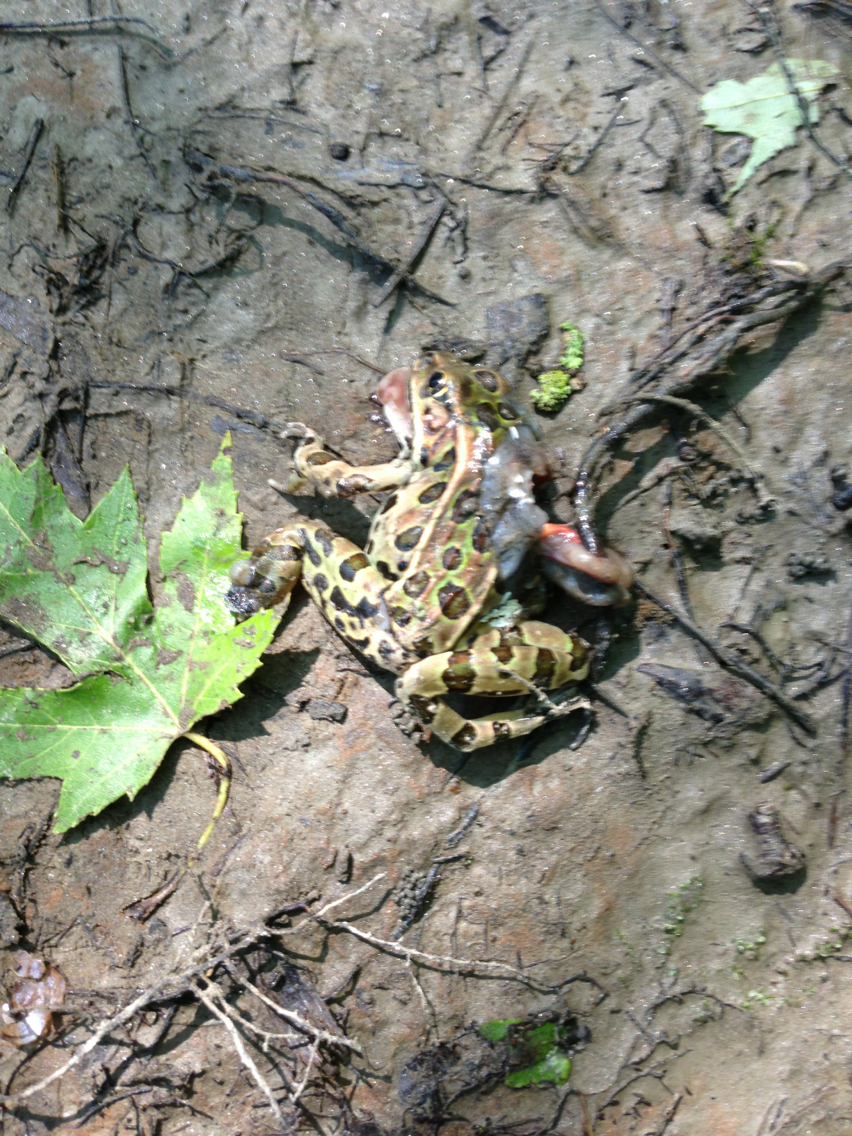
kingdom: Animalia
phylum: Chordata
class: Amphibia
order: Anura
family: Ranidae
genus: Lithobates
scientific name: Lithobates pipiens
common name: Northern leopard frog
